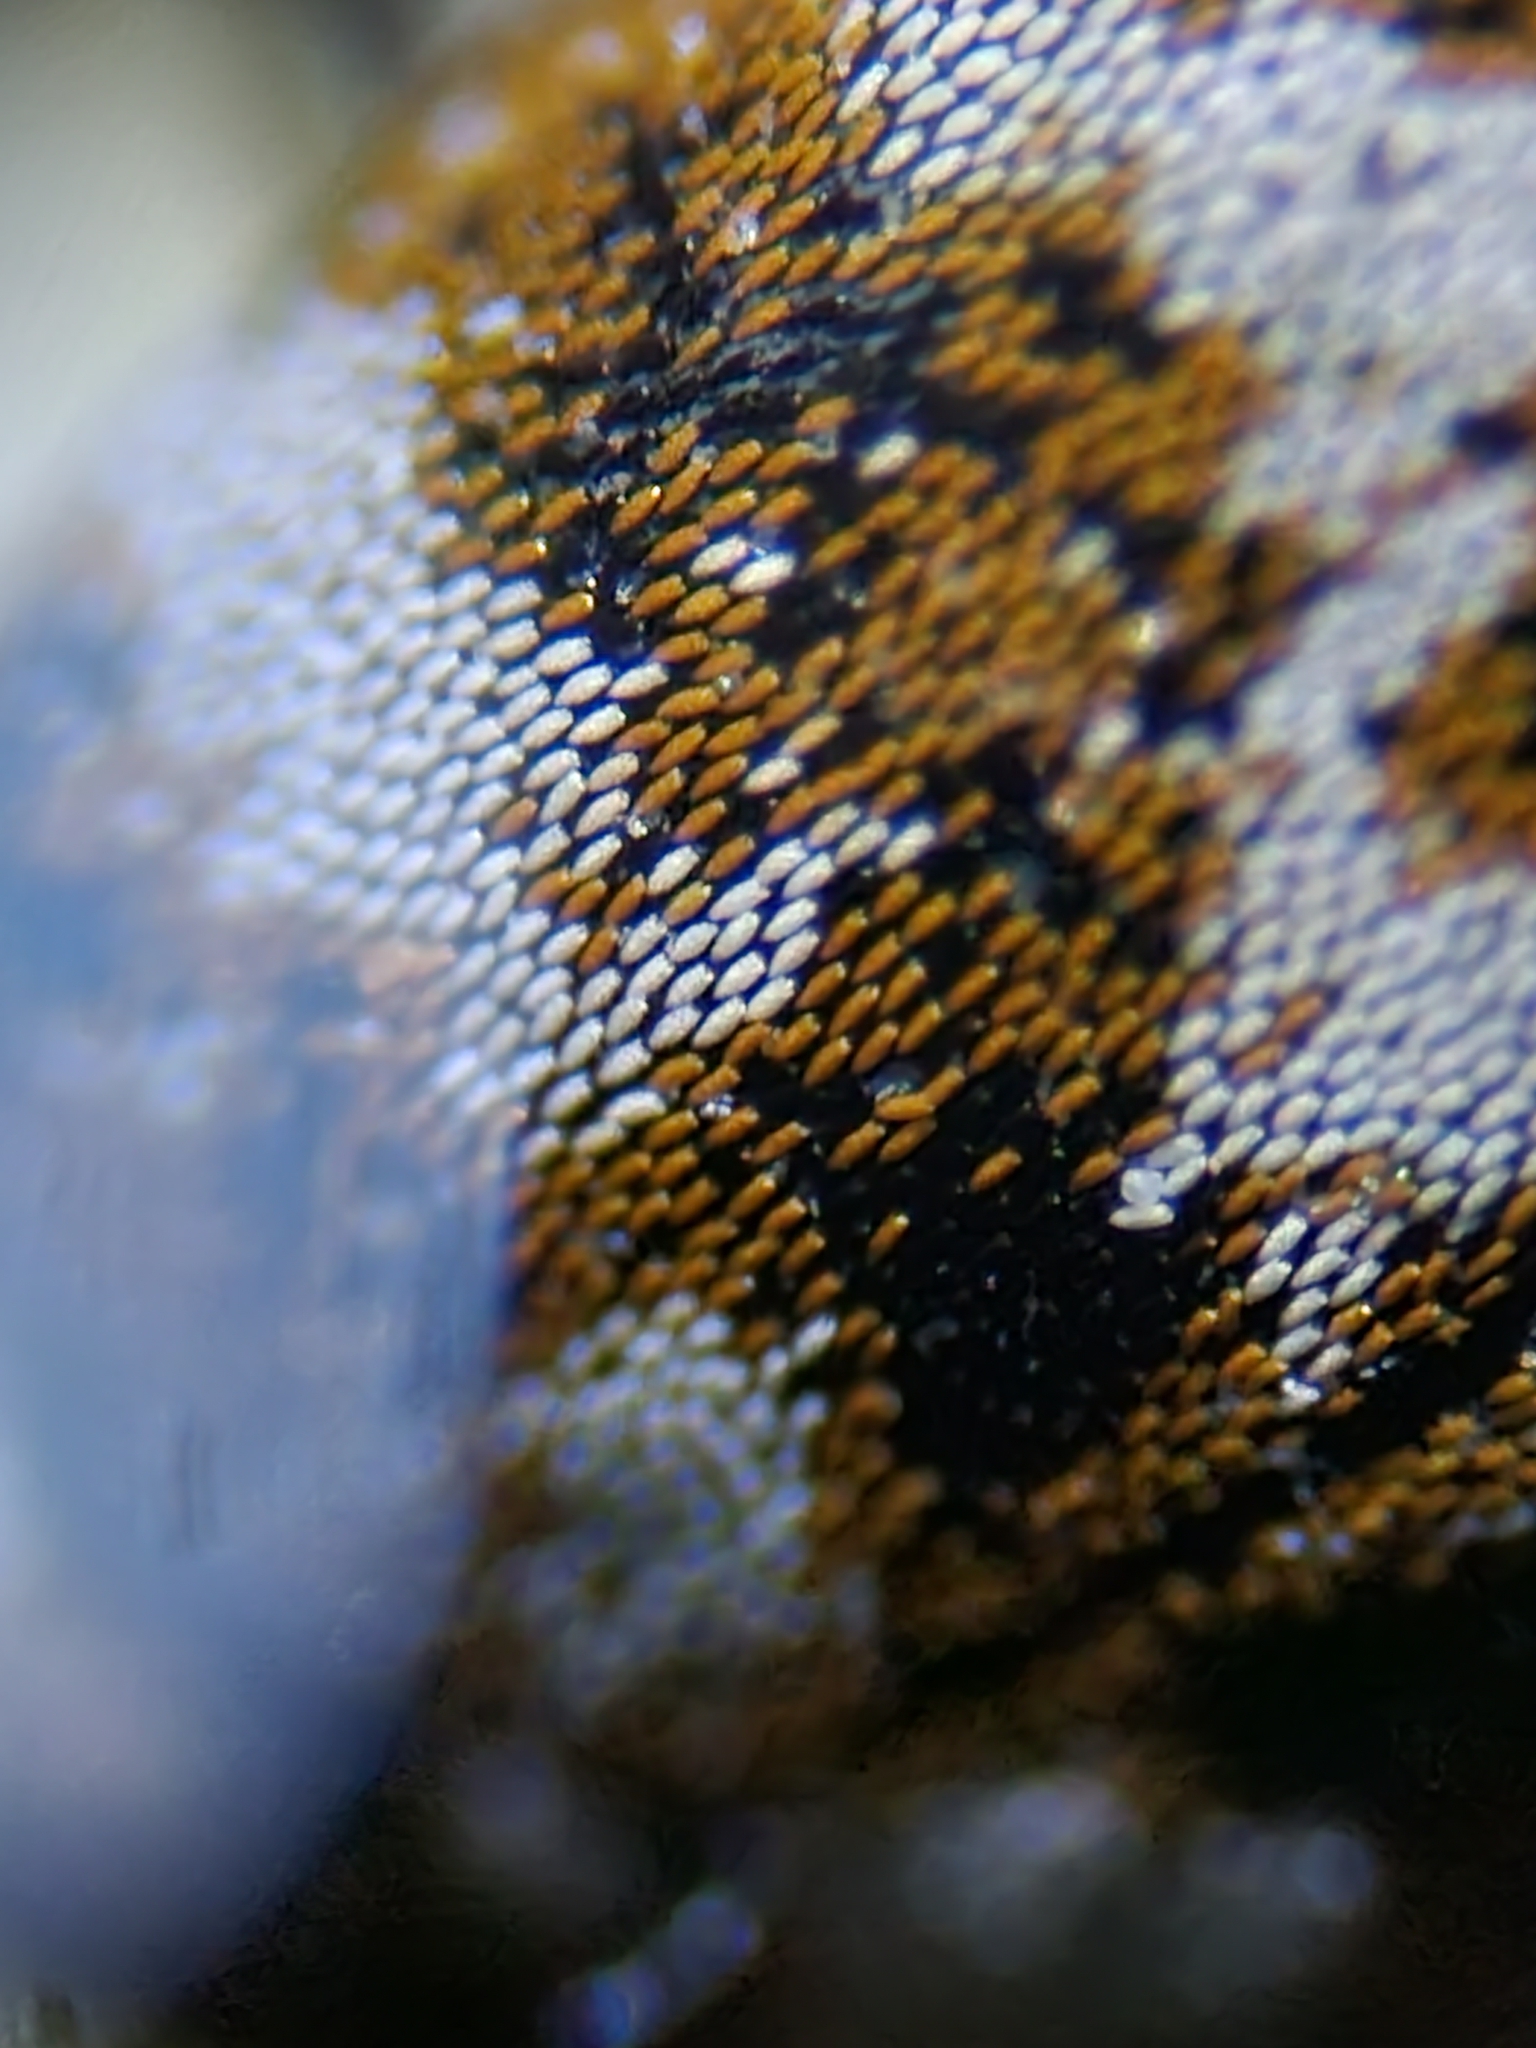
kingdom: Animalia
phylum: Arthropoda
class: Insecta
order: Coleoptera
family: Dermestidae
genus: Anthrenus
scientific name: Anthrenus verbasci
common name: Varied carpet beetle
